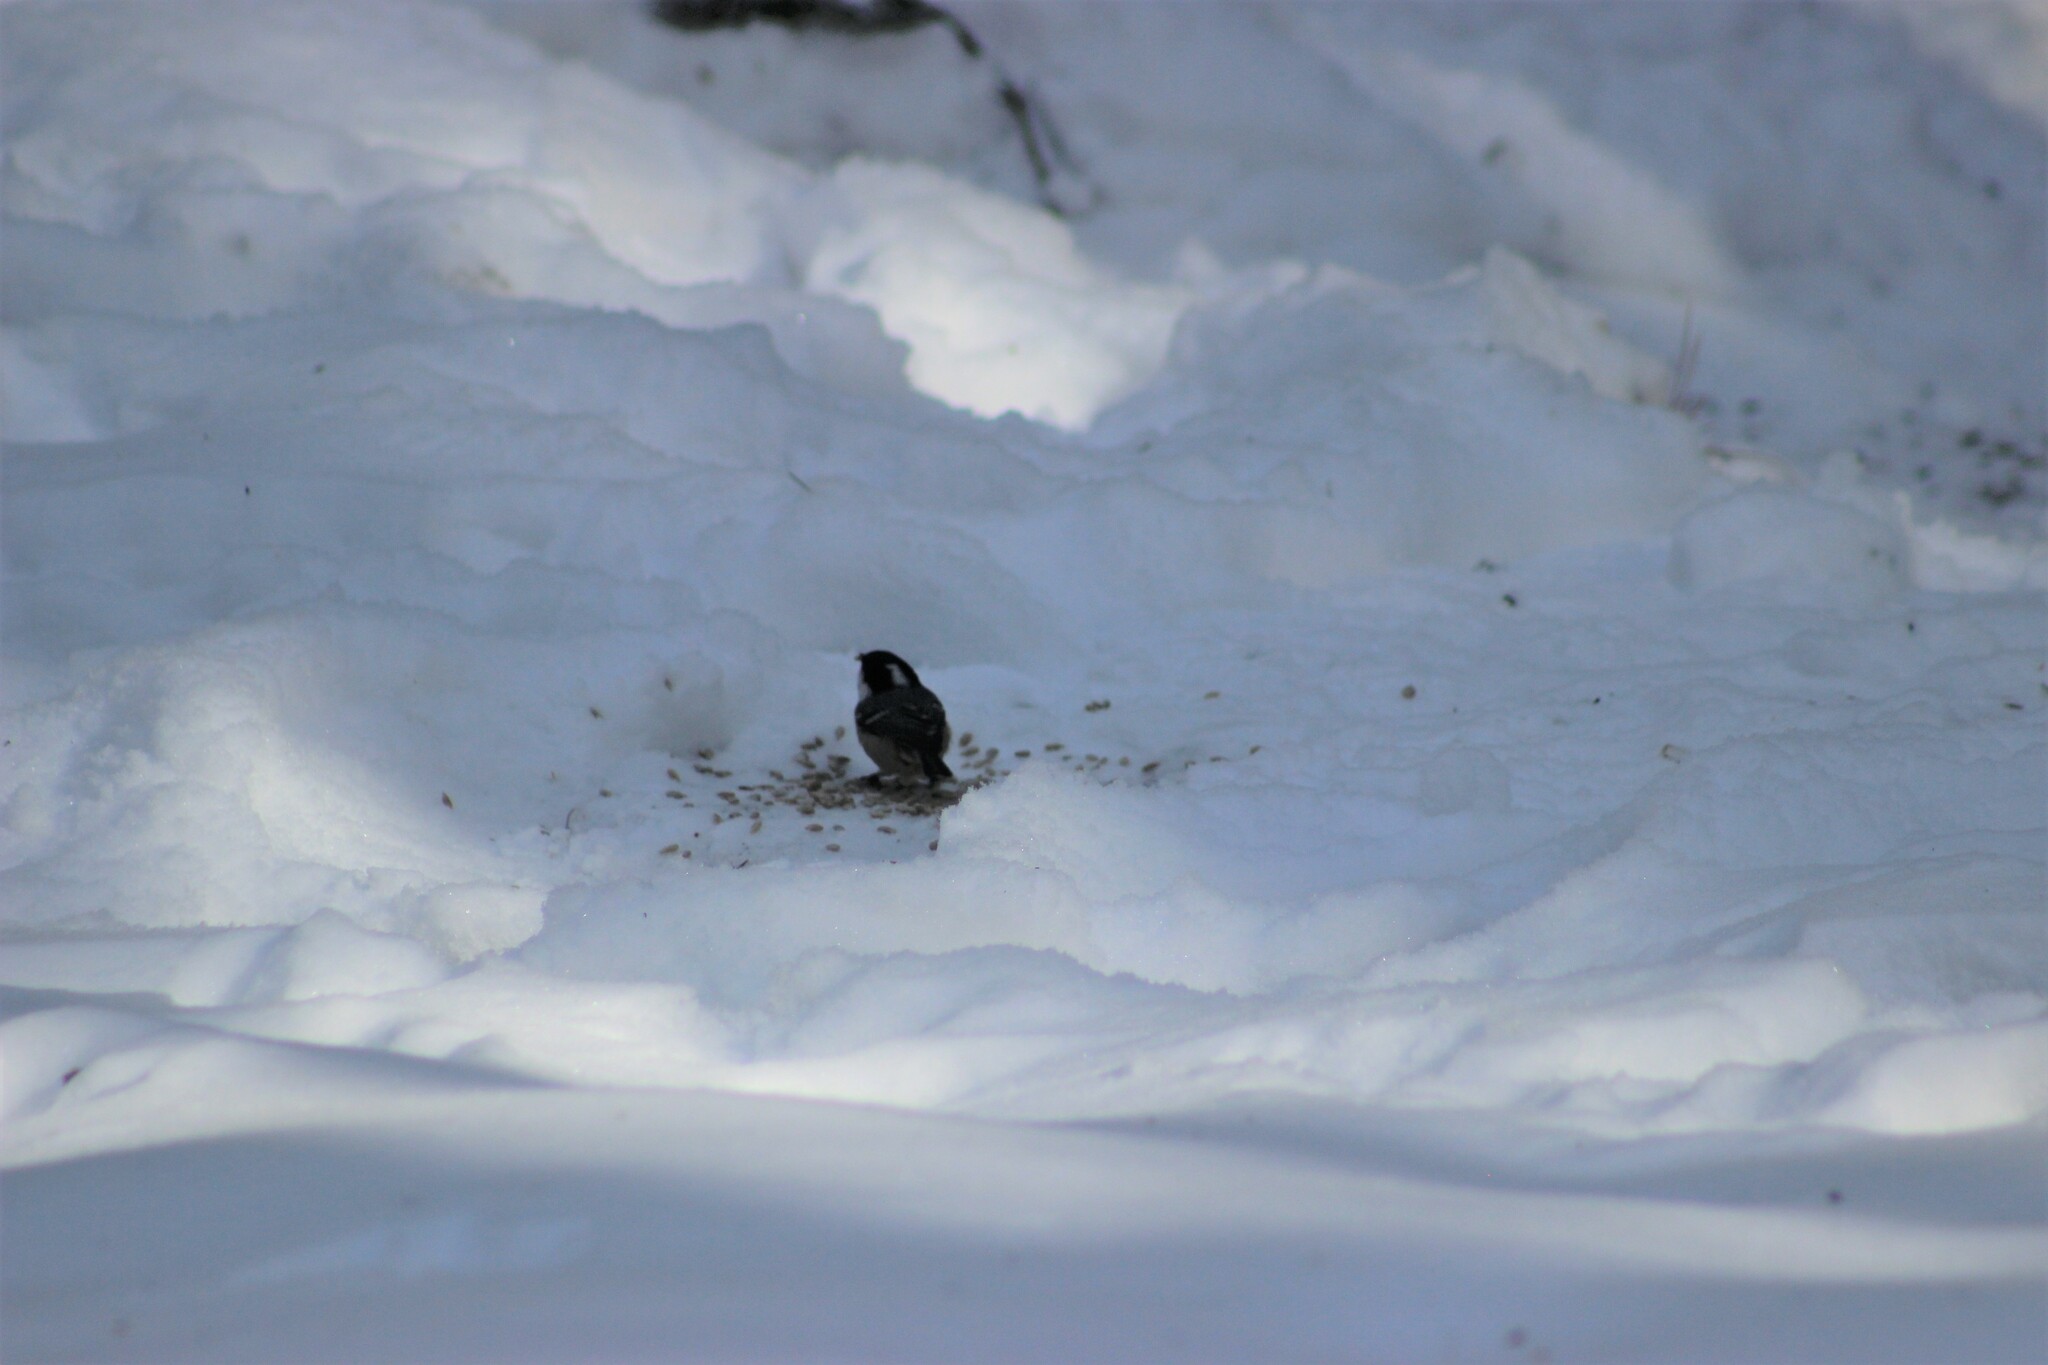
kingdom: Animalia
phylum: Chordata
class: Aves
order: Passeriformes
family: Paridae
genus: Periparus
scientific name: Periparus ater
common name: Coal tit
